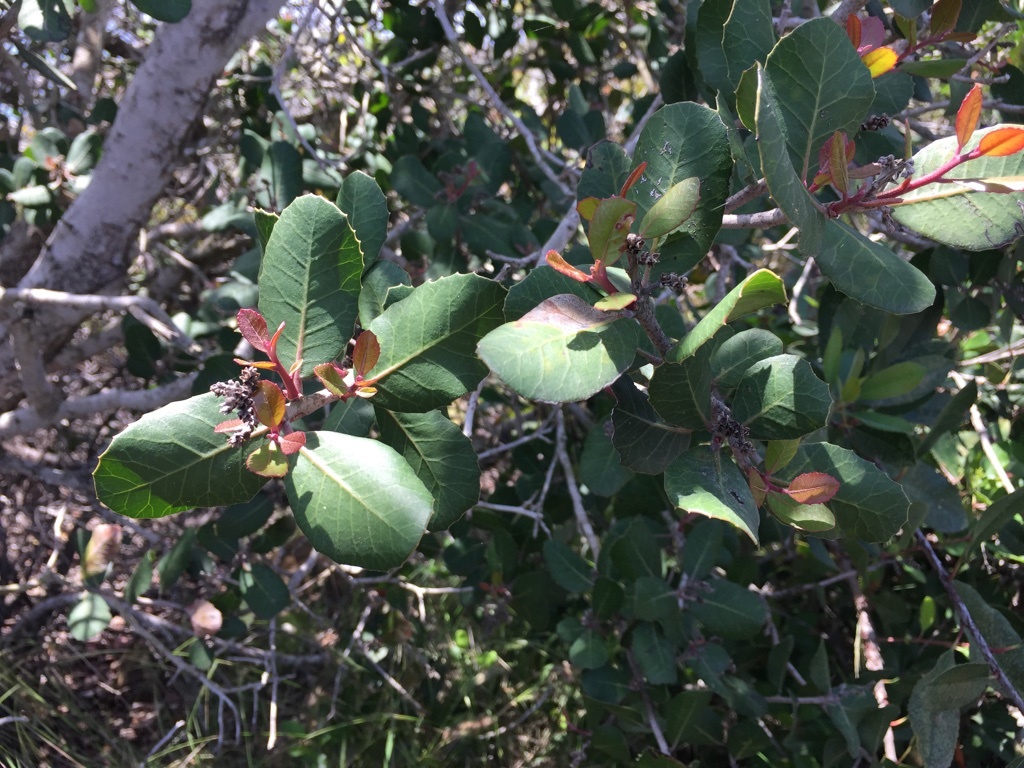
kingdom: Plantae
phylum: Tracheophyta
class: Magnoliopsida
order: Sapindales
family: Anacardiaceae
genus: Rhus
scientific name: Rhus integrifolia
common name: Lemonade sumac
